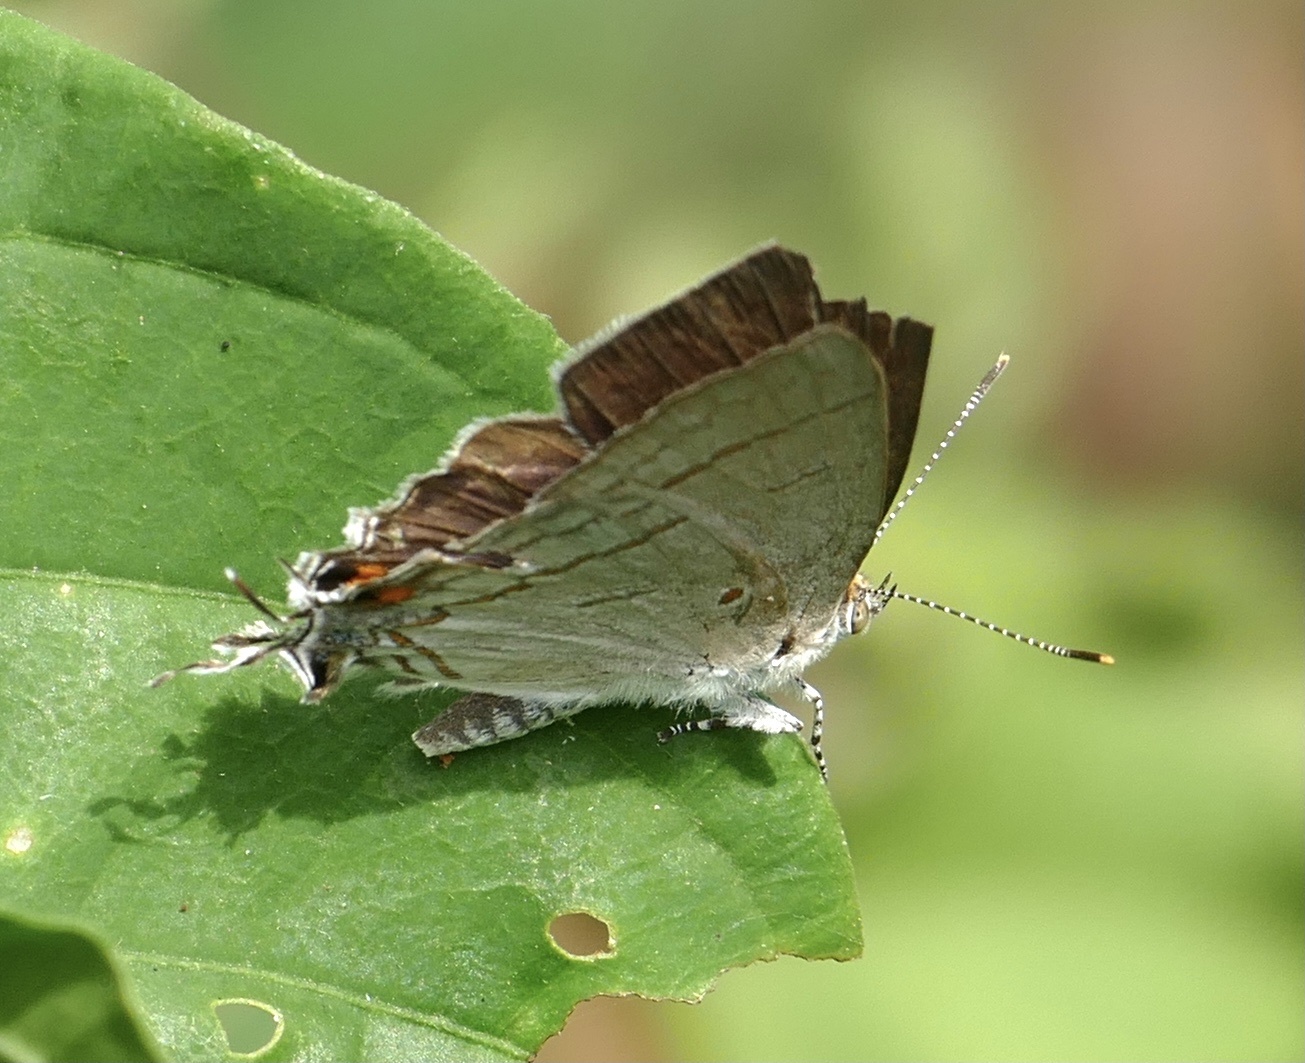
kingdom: Animalia
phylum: Arthropoda
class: Insecta
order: Lepidoptera
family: Lycaenidae
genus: Hypolycaena
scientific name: Hypolycaena philippus
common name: Common hairstreak
